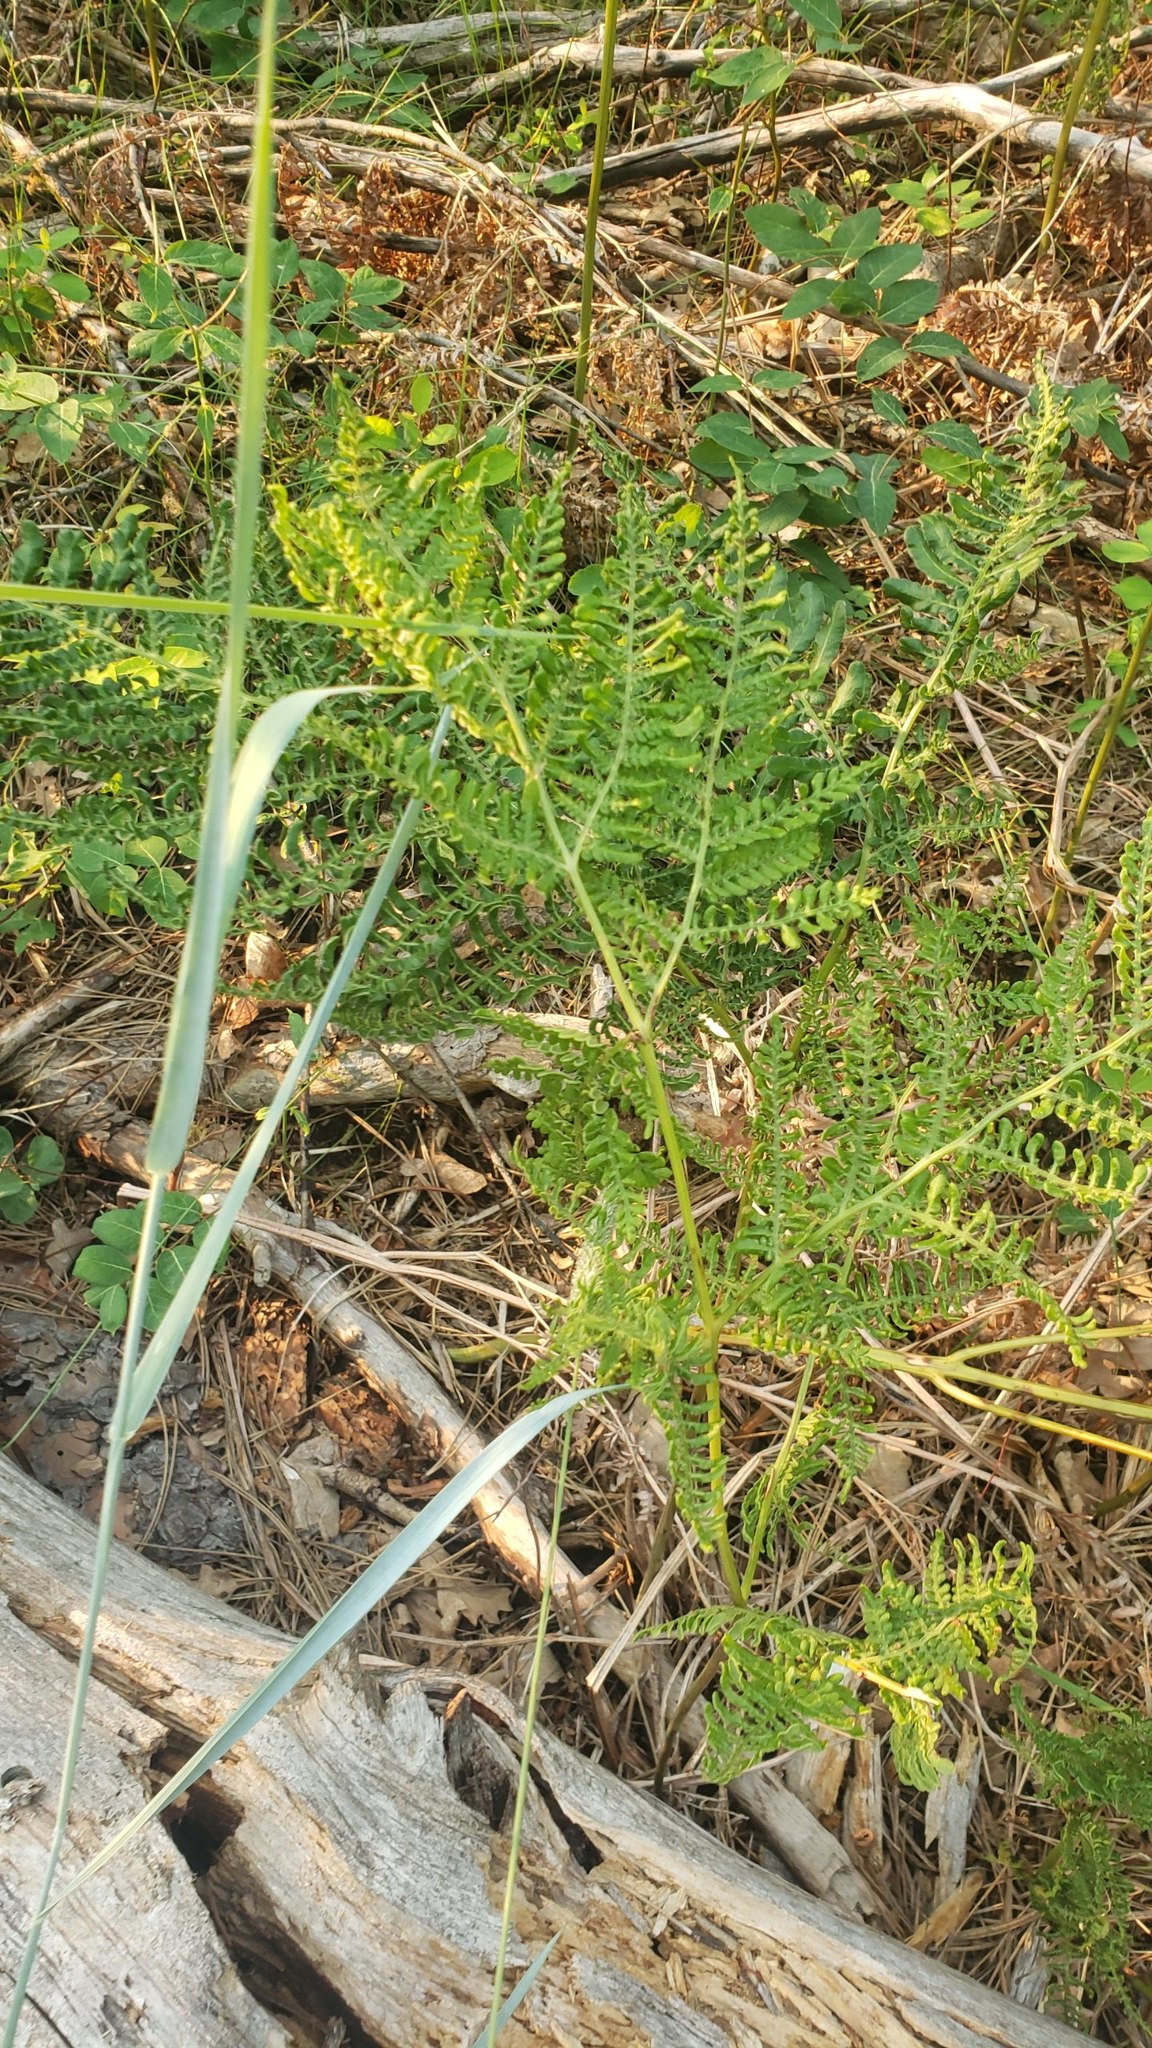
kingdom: Plantae
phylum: Tracheophyta
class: Polypodiopsida
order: Polypodiales
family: Dennstaedtiaceae
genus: Pteridium
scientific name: Pteridium aquilinum
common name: Bracken
